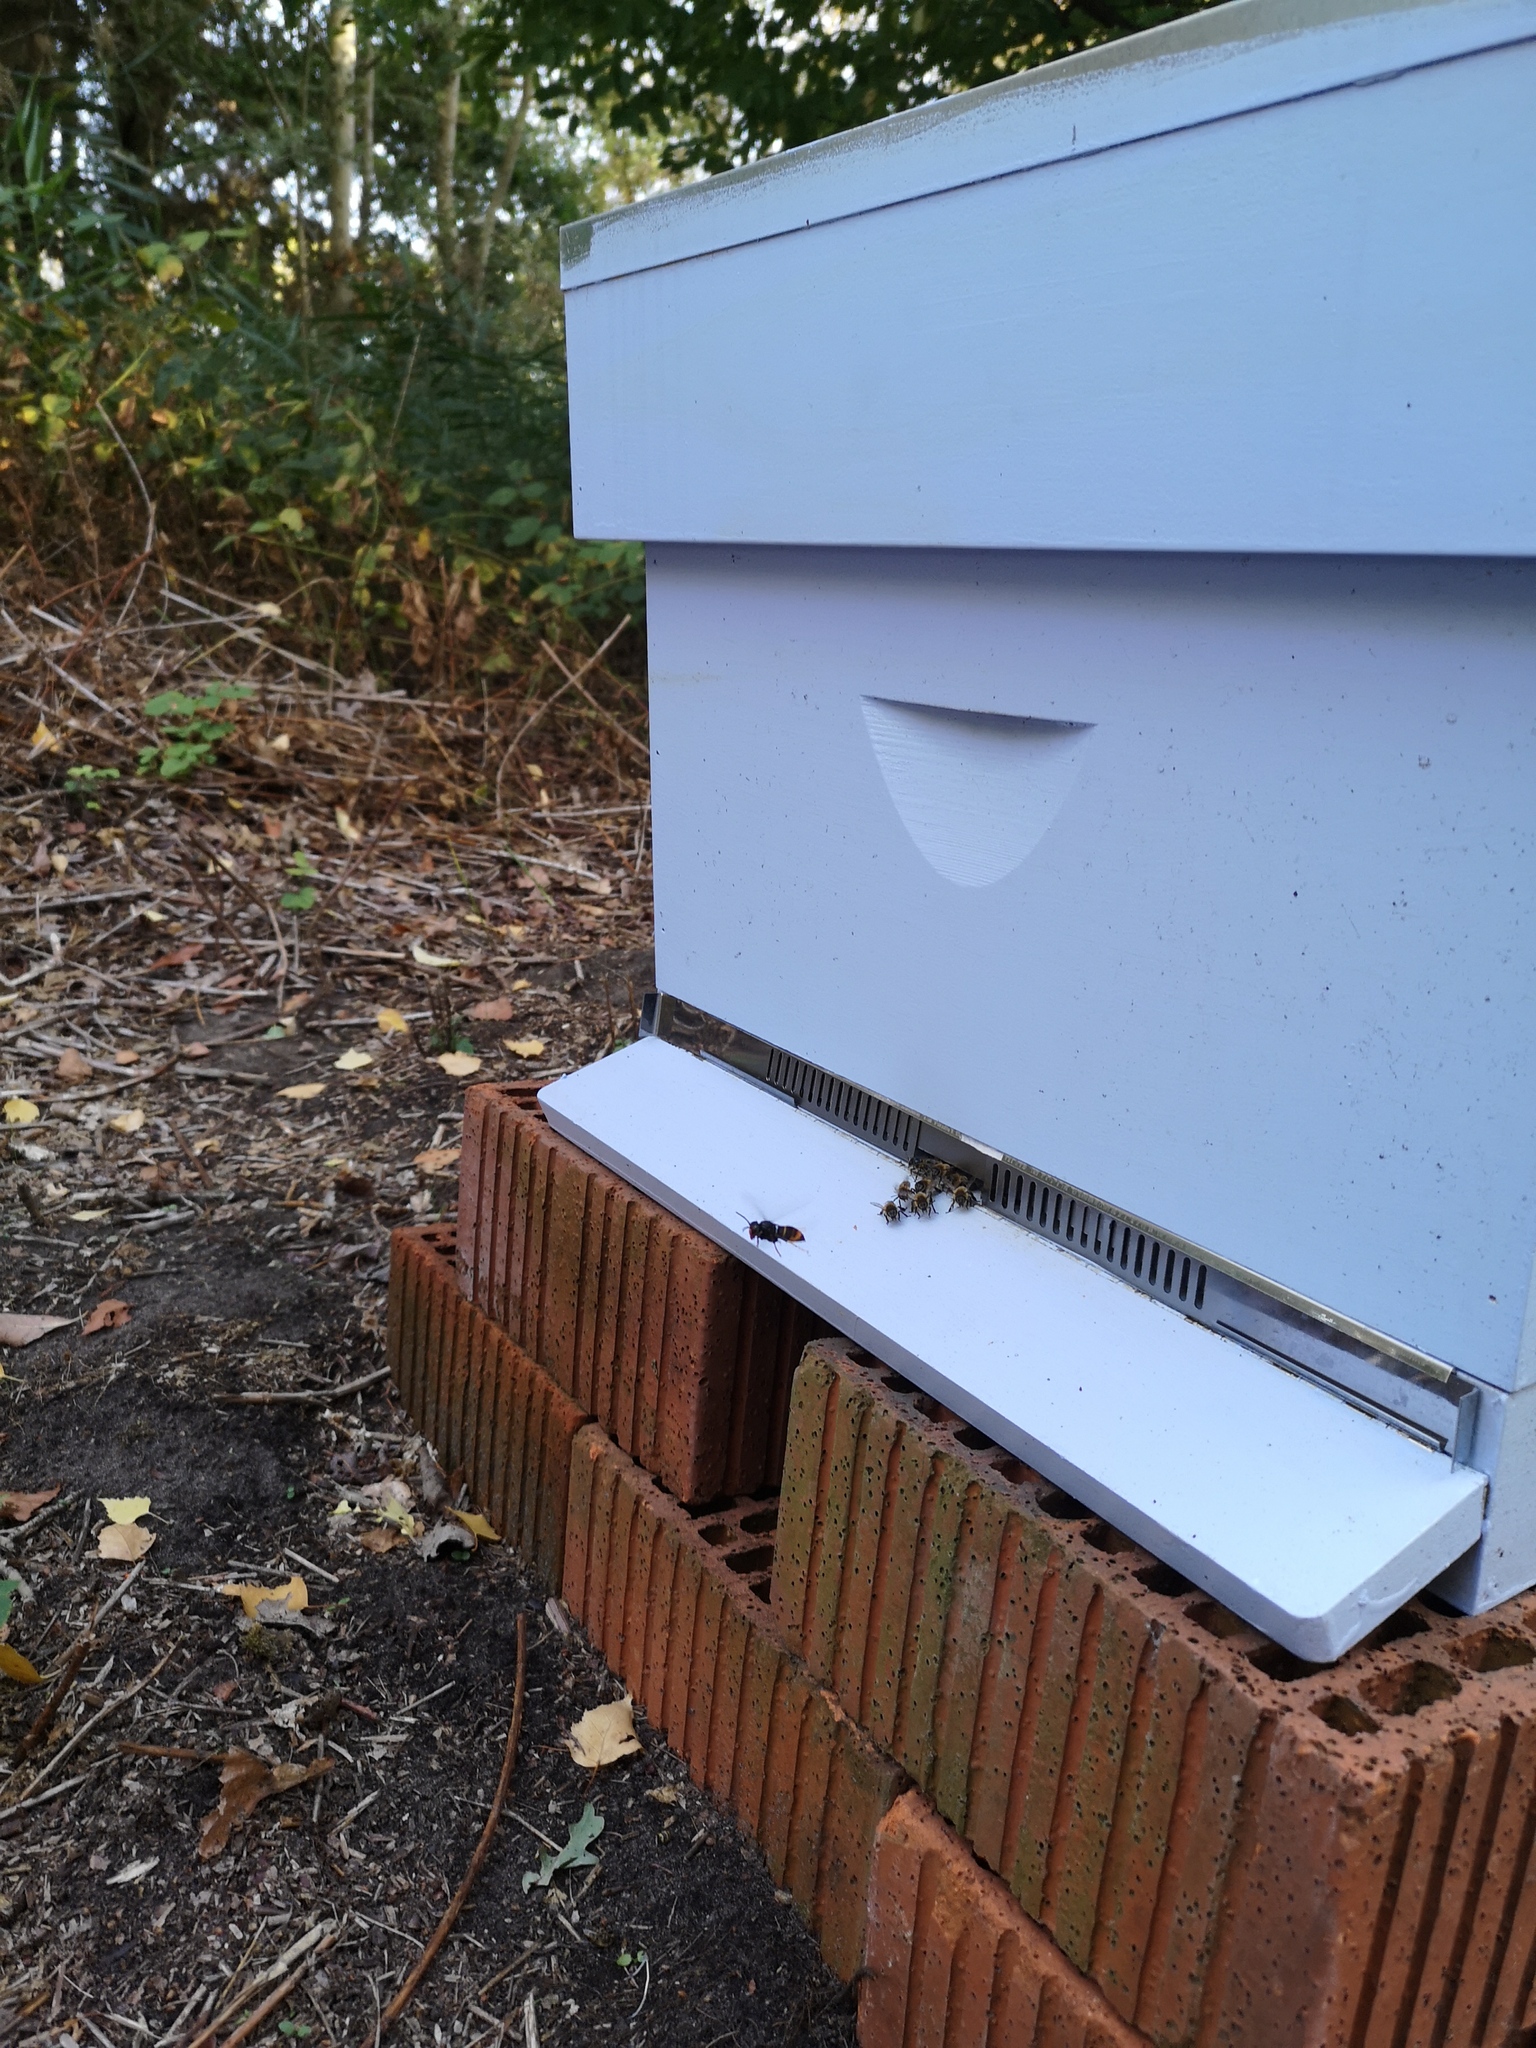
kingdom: Animalia
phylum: Arthropoda
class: Insecta
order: Hymenoptera
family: Vespidae
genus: Vespa
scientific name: Vespa velutina
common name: Asian hornet
